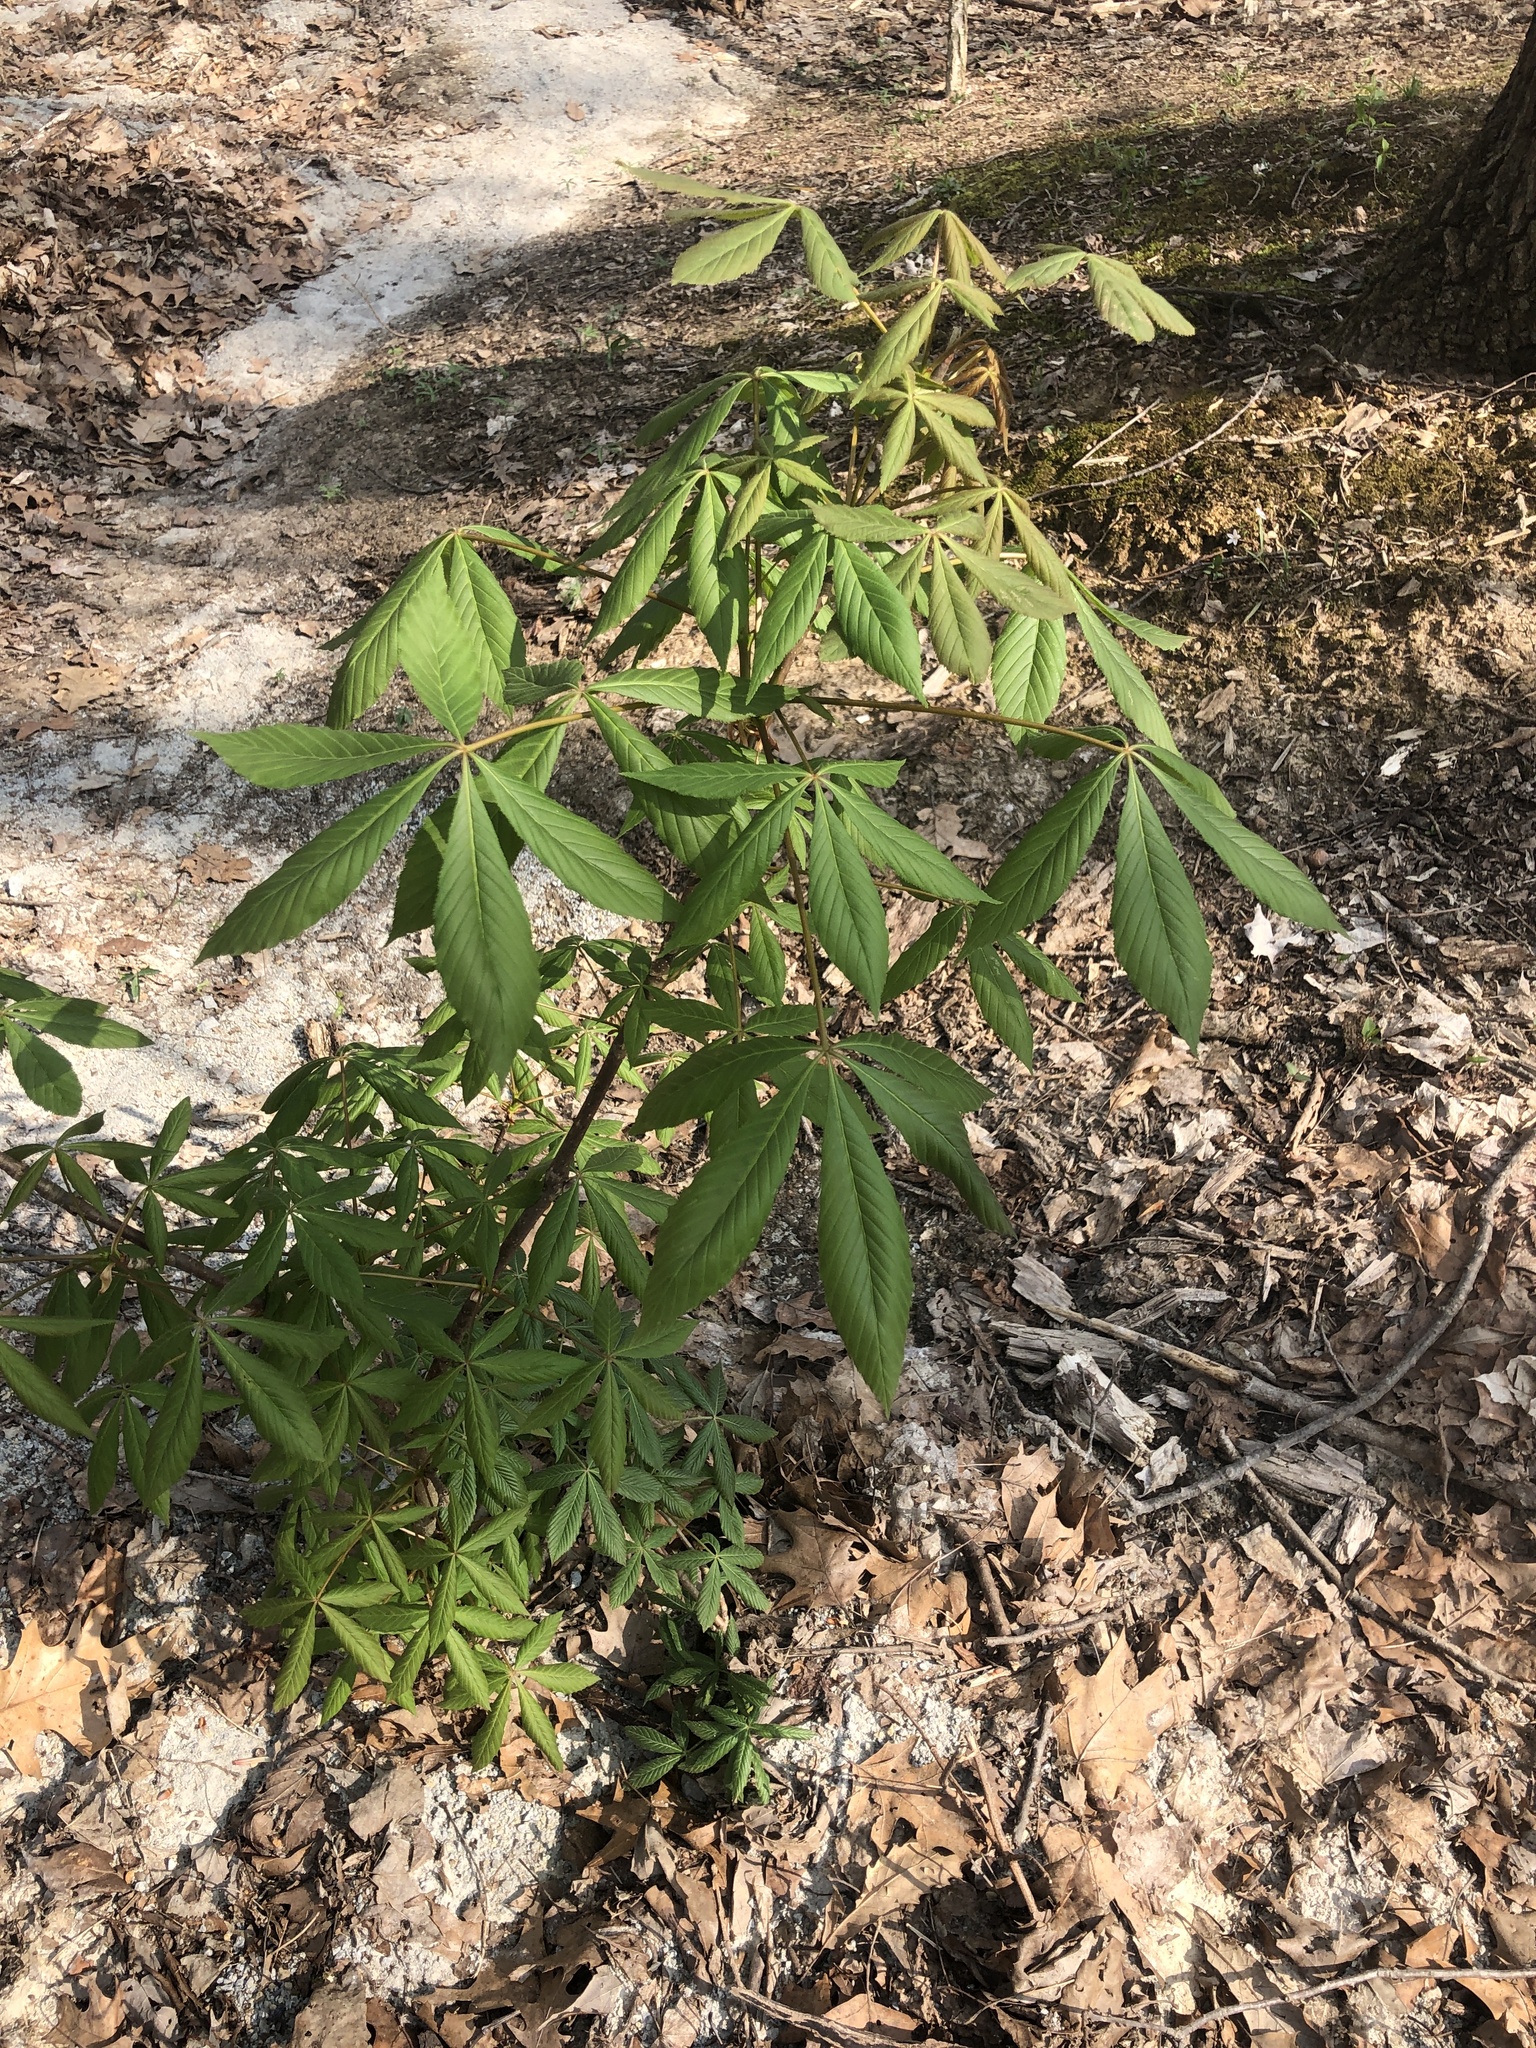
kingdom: Plantae
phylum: Tracheophyta
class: Magnoliopsida
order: Sapindales
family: Sapindaceae
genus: Aesculus
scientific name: Aesculus glabra
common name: Ohio buckeye
